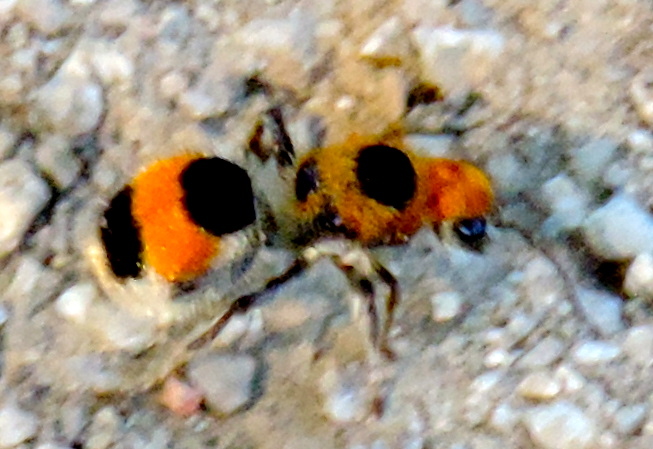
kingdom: Animalia
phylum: Arthropoda
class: Insecta
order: Hymenoptera
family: Mutillidae
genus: Dasymutilla
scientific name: Dasymutilla
